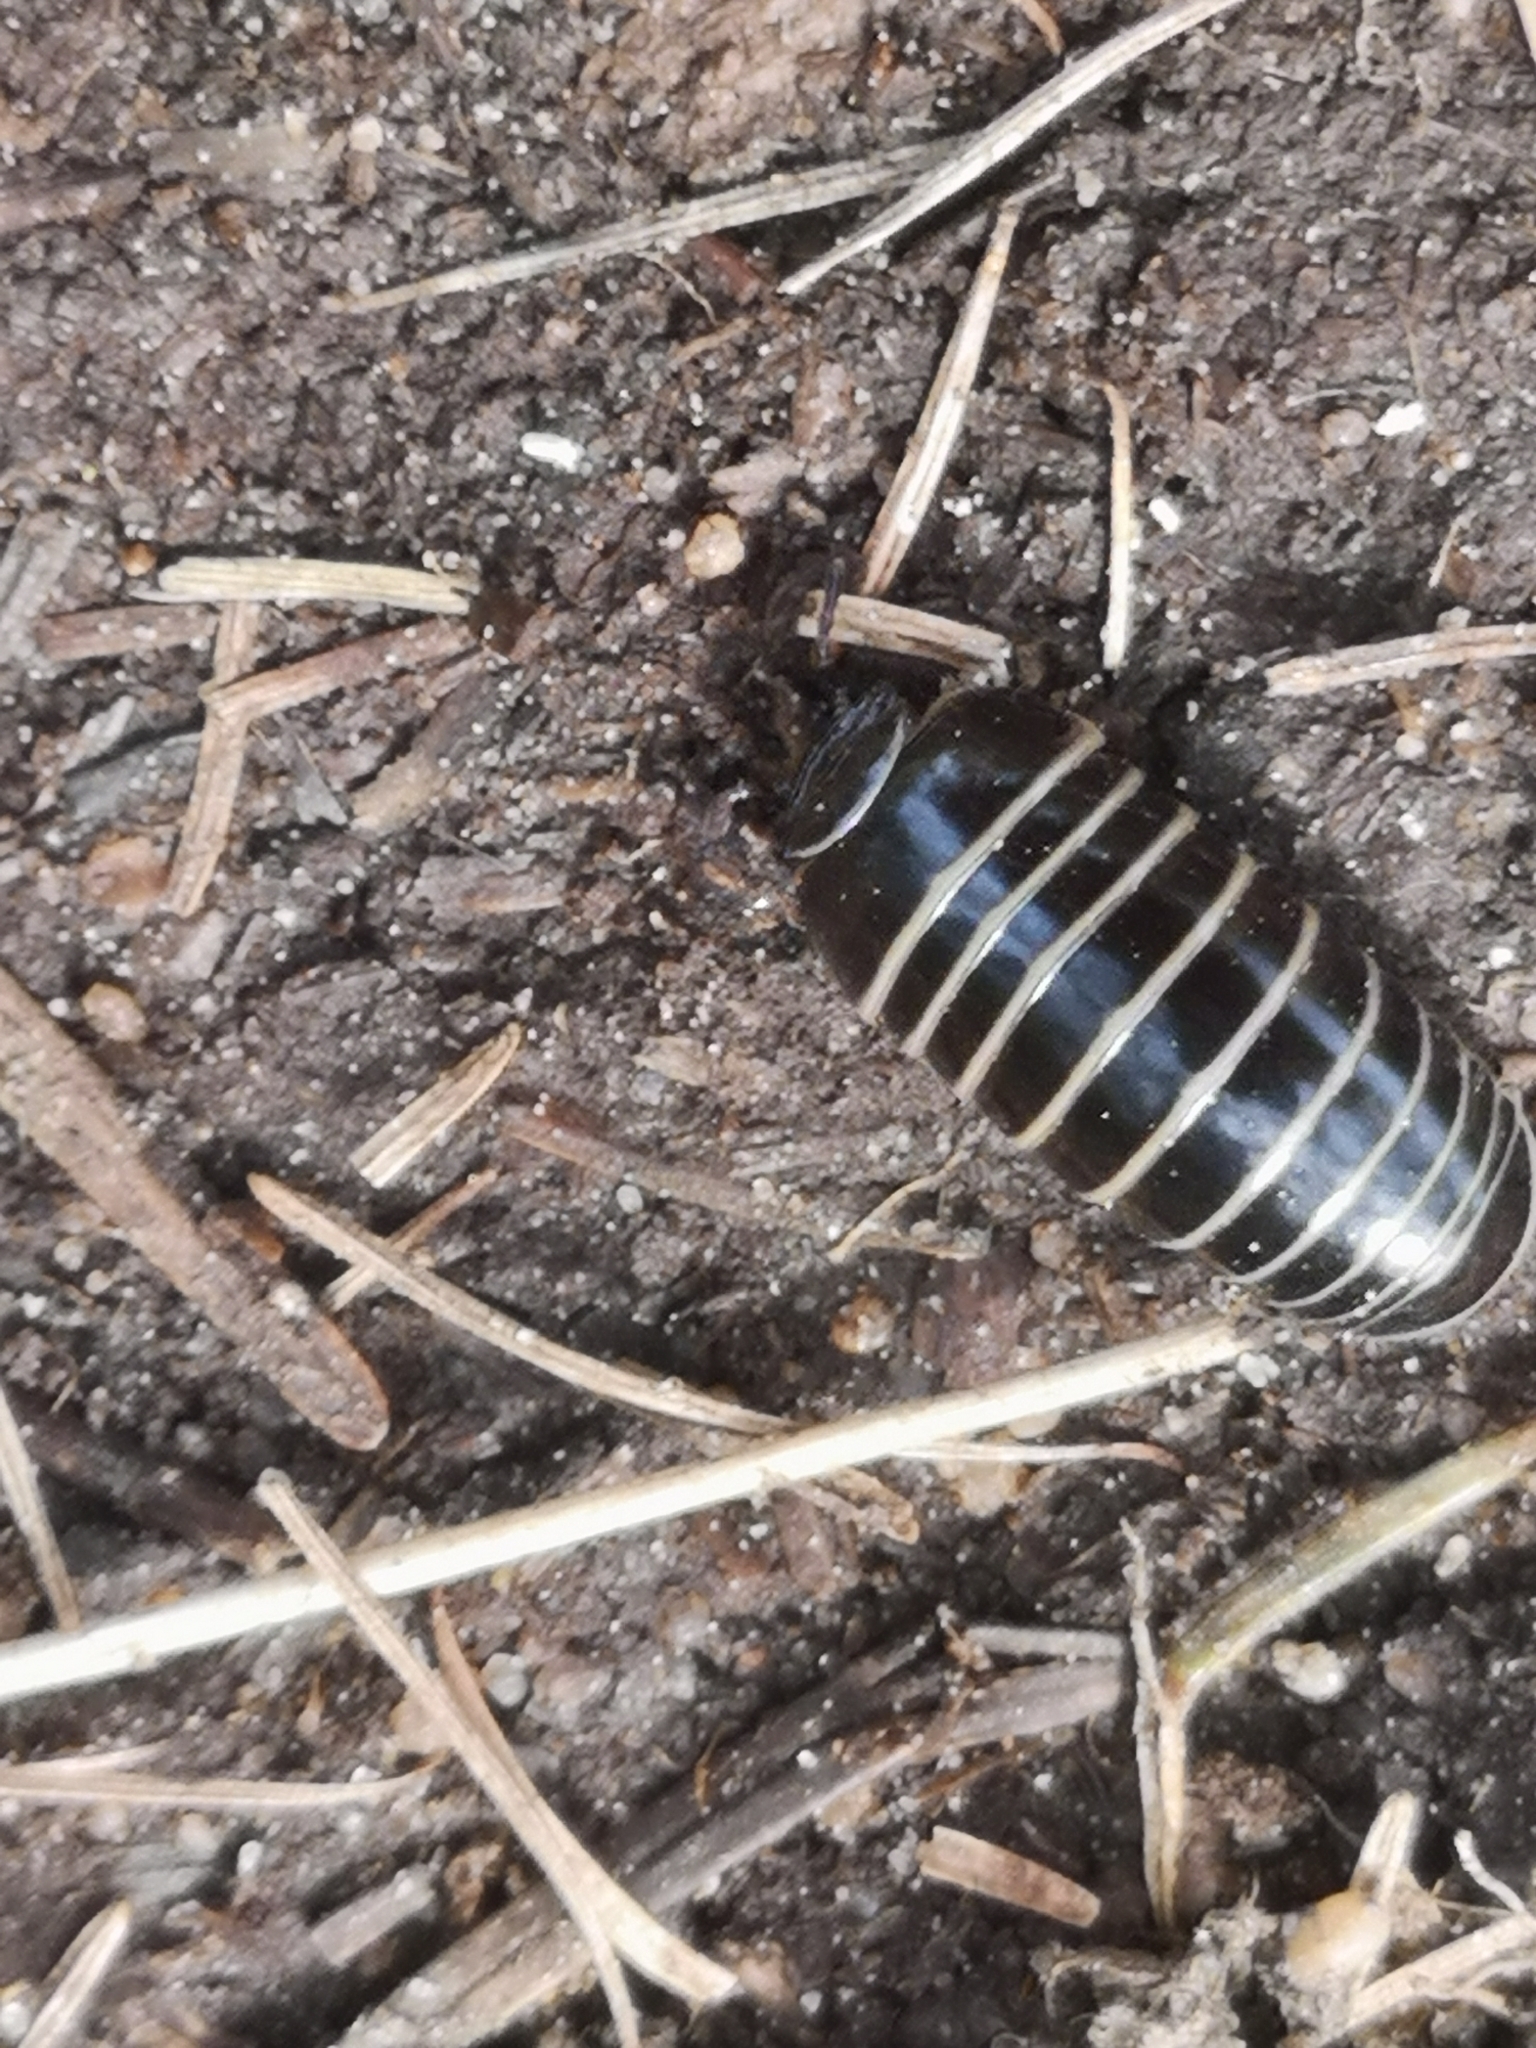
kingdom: Animalia
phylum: Arthropoda
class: Diplopoda
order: Glomerida
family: Glomeridae
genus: Glomeris
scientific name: Glomeris marginata
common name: Bordered pill millipede
